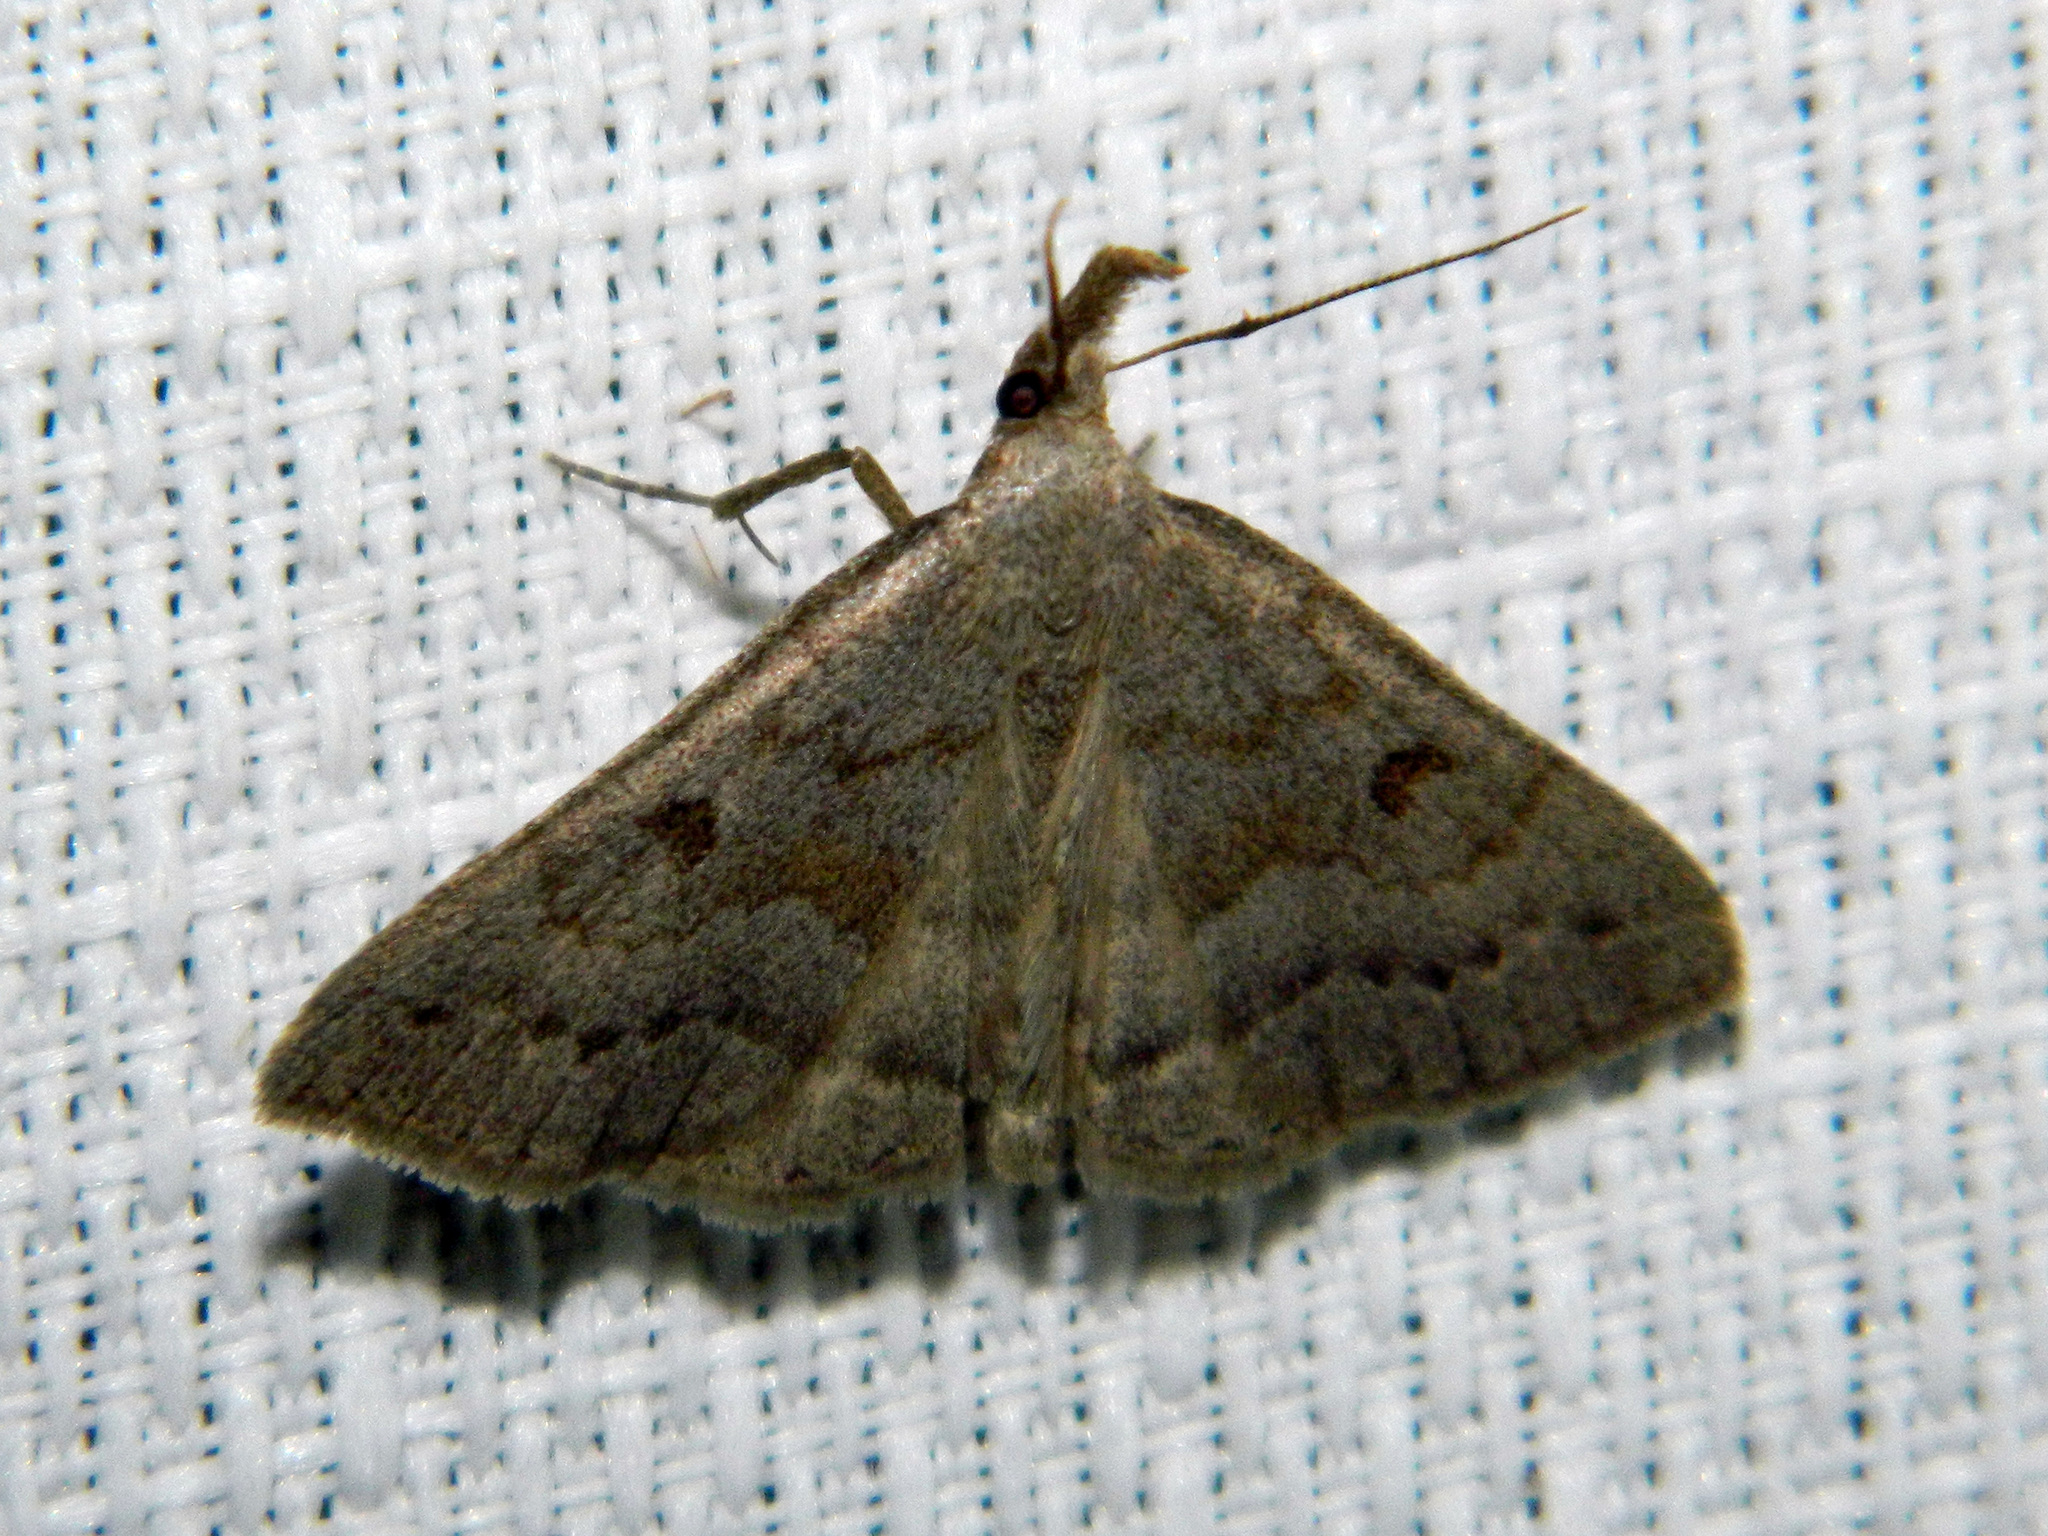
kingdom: Animalia
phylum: Arthropoda
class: Insecta
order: Lepidoptera
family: Erebidae
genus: Macrochilo
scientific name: Macrochilo morbidalis
